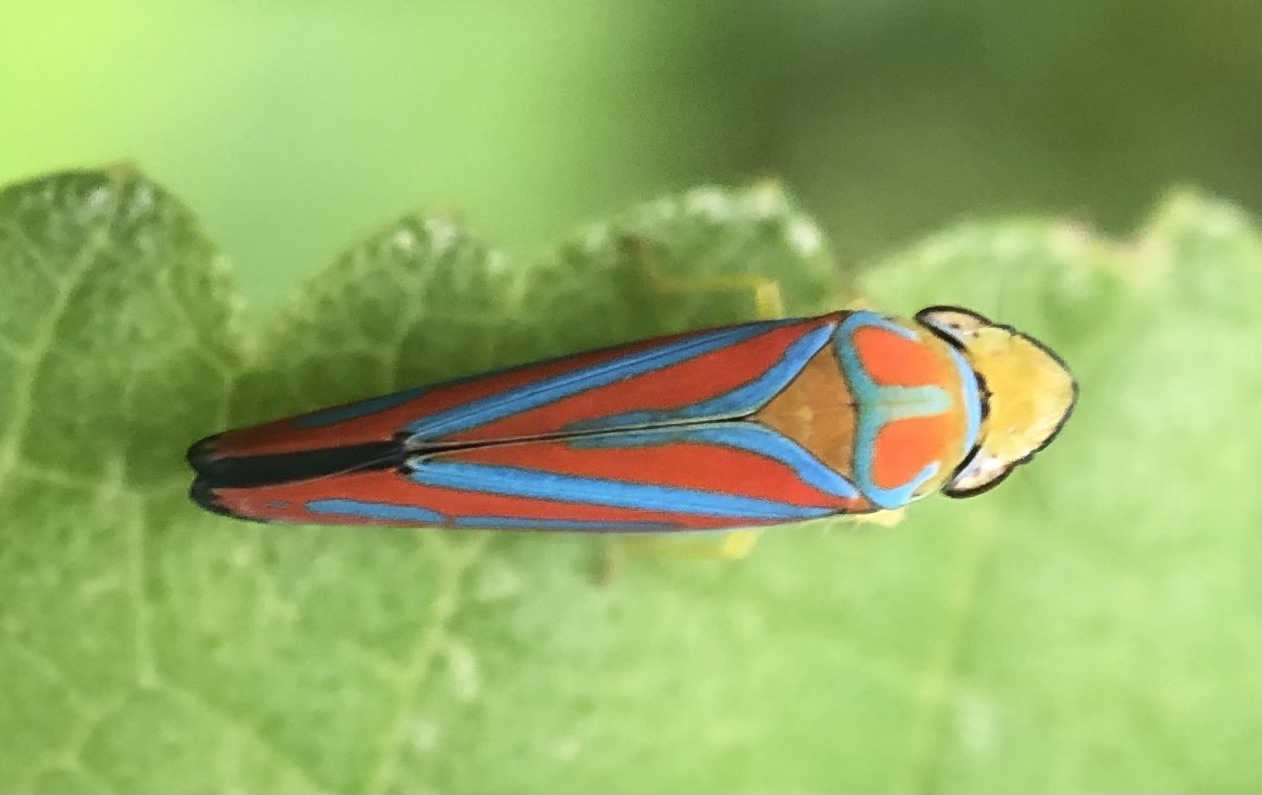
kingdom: Animalia
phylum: Arthropoda
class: Insecta
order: Hemiptera
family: Cicadellidae
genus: Graphocephala
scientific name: Graphocephala coccinea
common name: Candy-striped leafhopper
